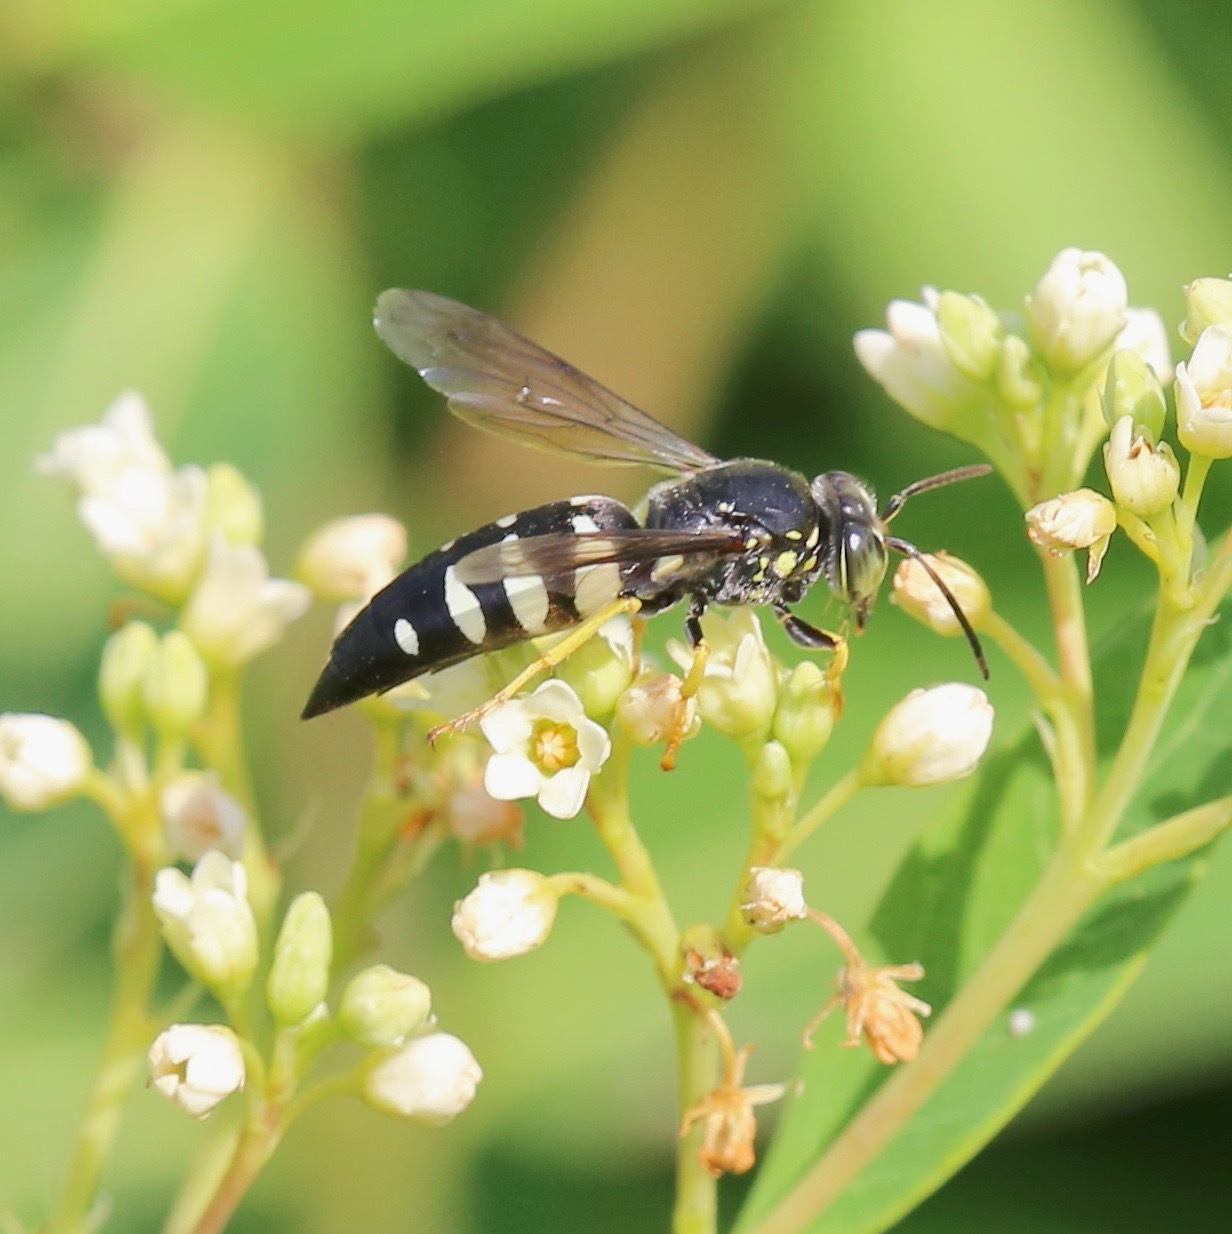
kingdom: Animalia
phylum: Arthropoda
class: Insecta
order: Hymenoptera
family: Crabronidae
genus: Bicyrtes
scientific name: Bicyrtes quadrifasciatus
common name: Four-banded stink bug hunter wasp
